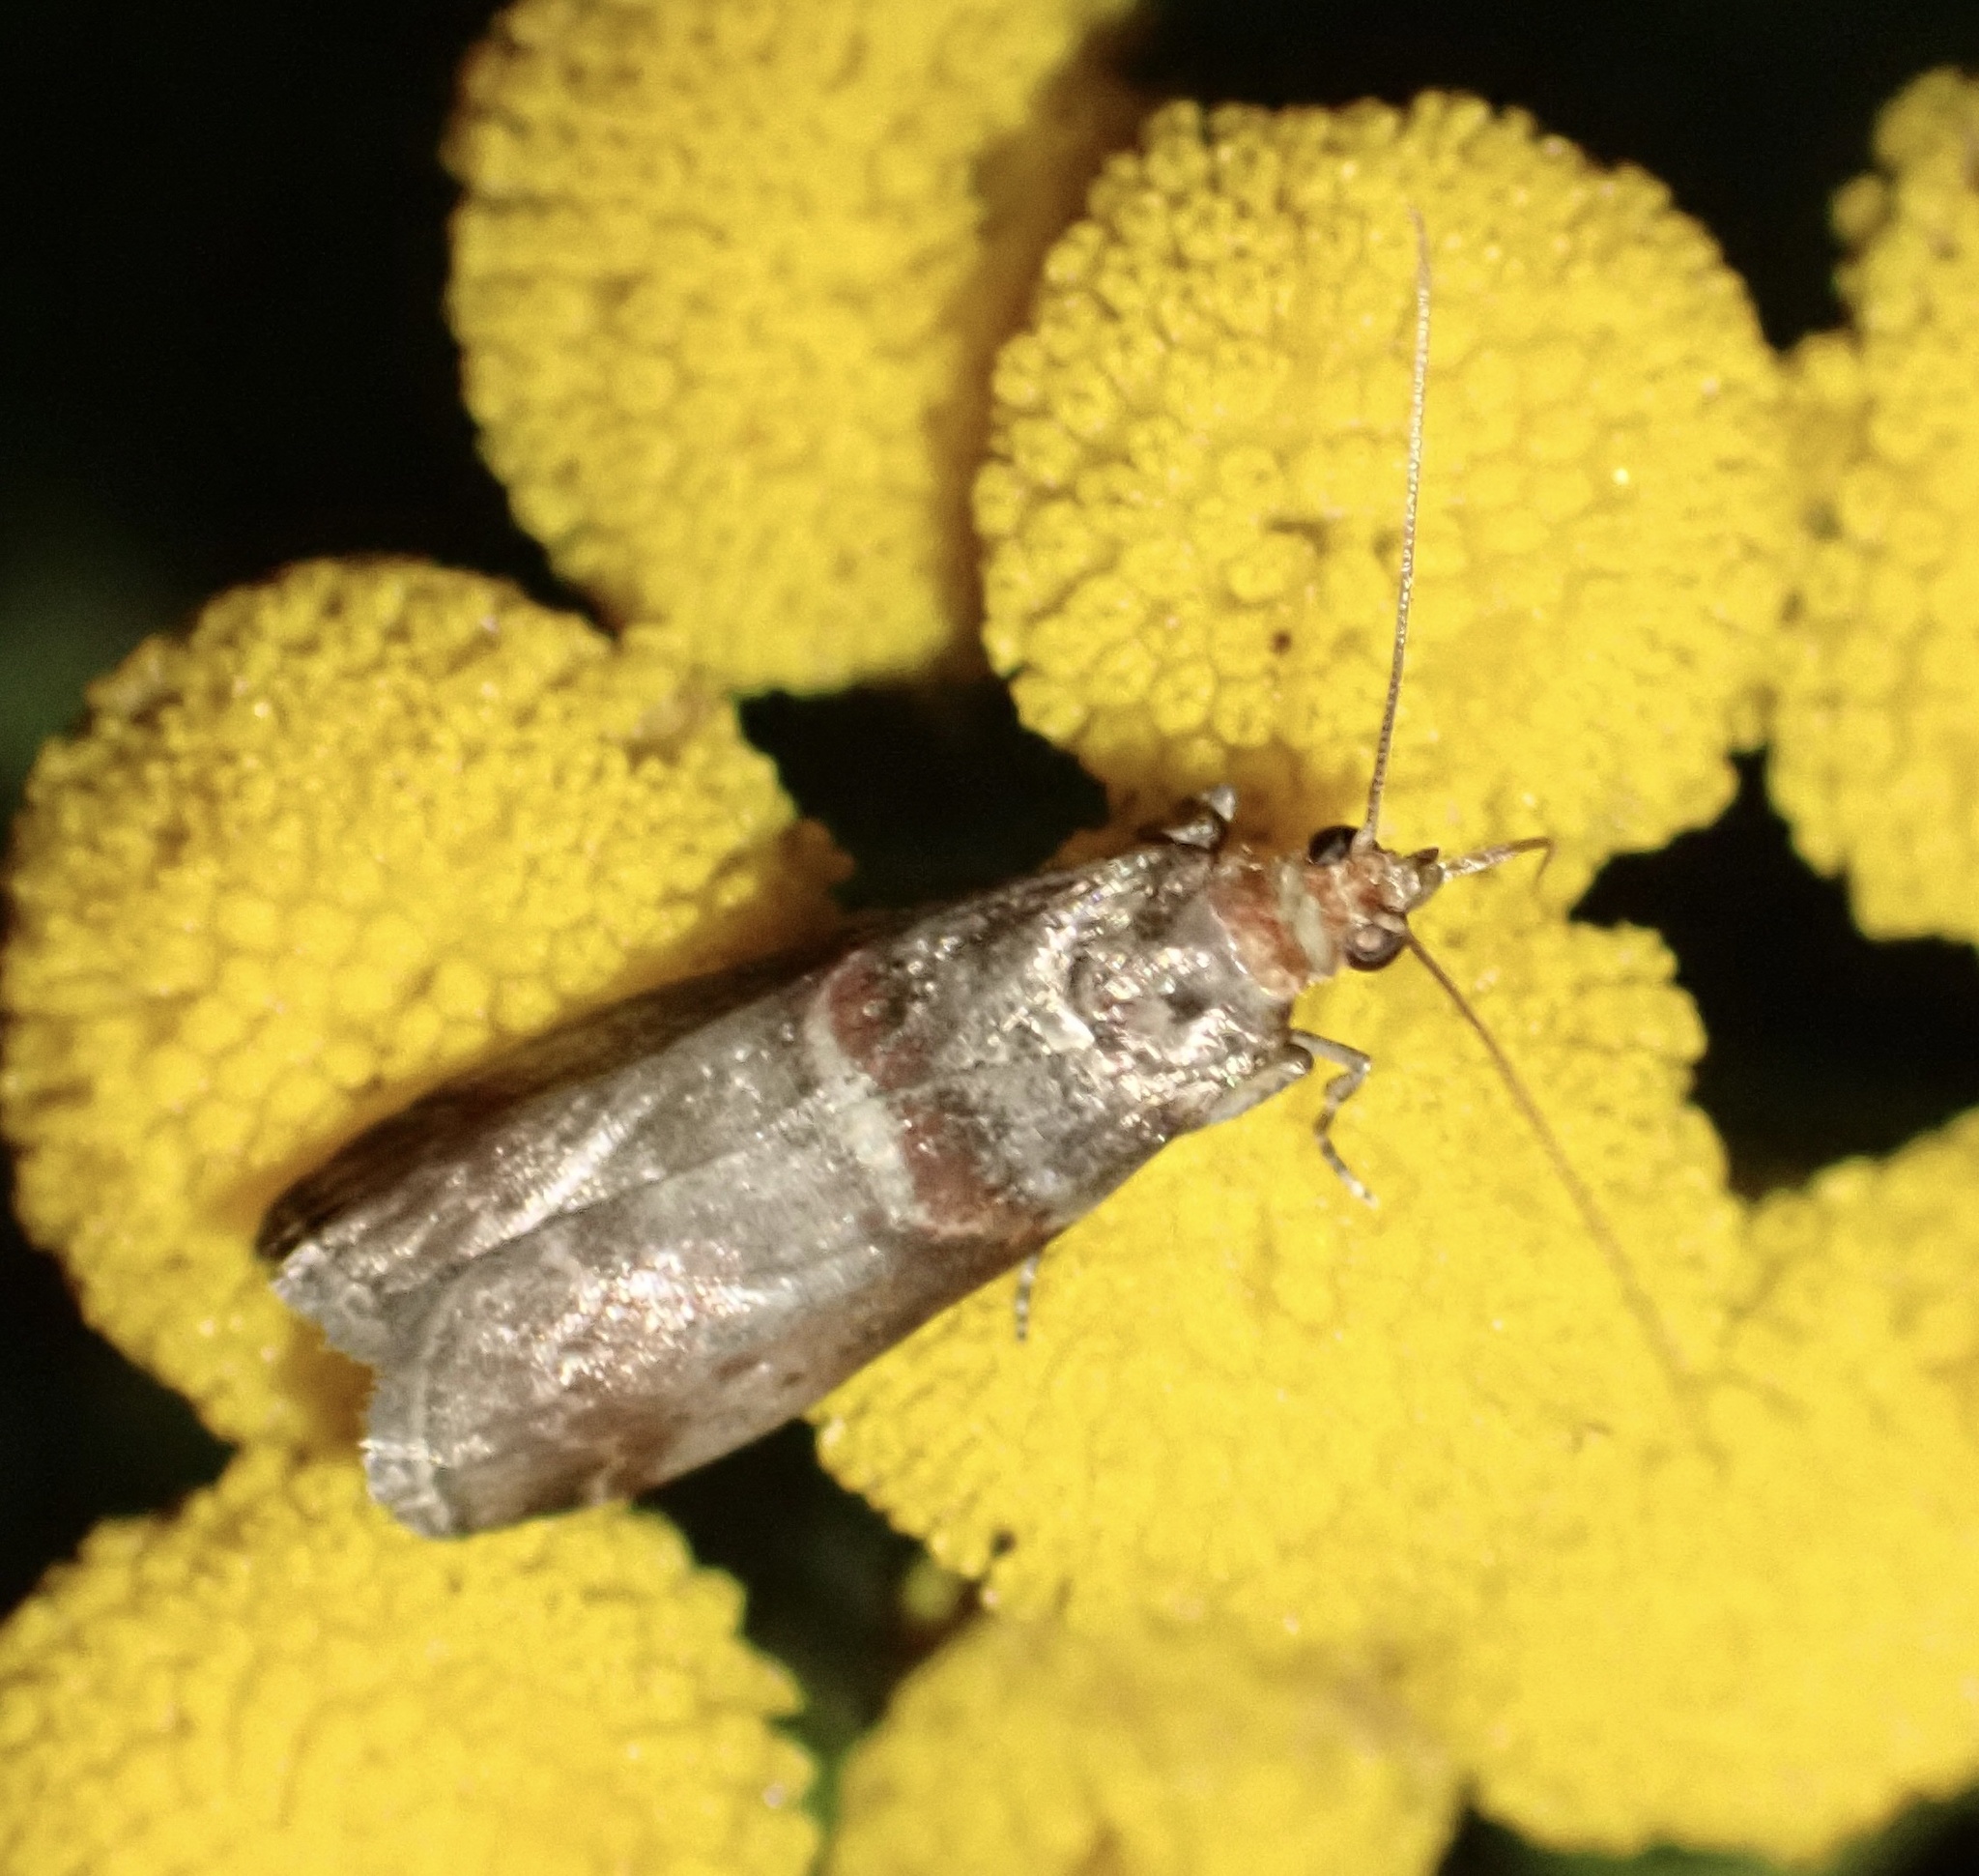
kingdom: Animalia
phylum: Arthropoda
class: Insecta
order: Lepidoptera
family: Pyralidae
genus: Acrobasis
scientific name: Acrobasis advenella
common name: Grey knot-horn
